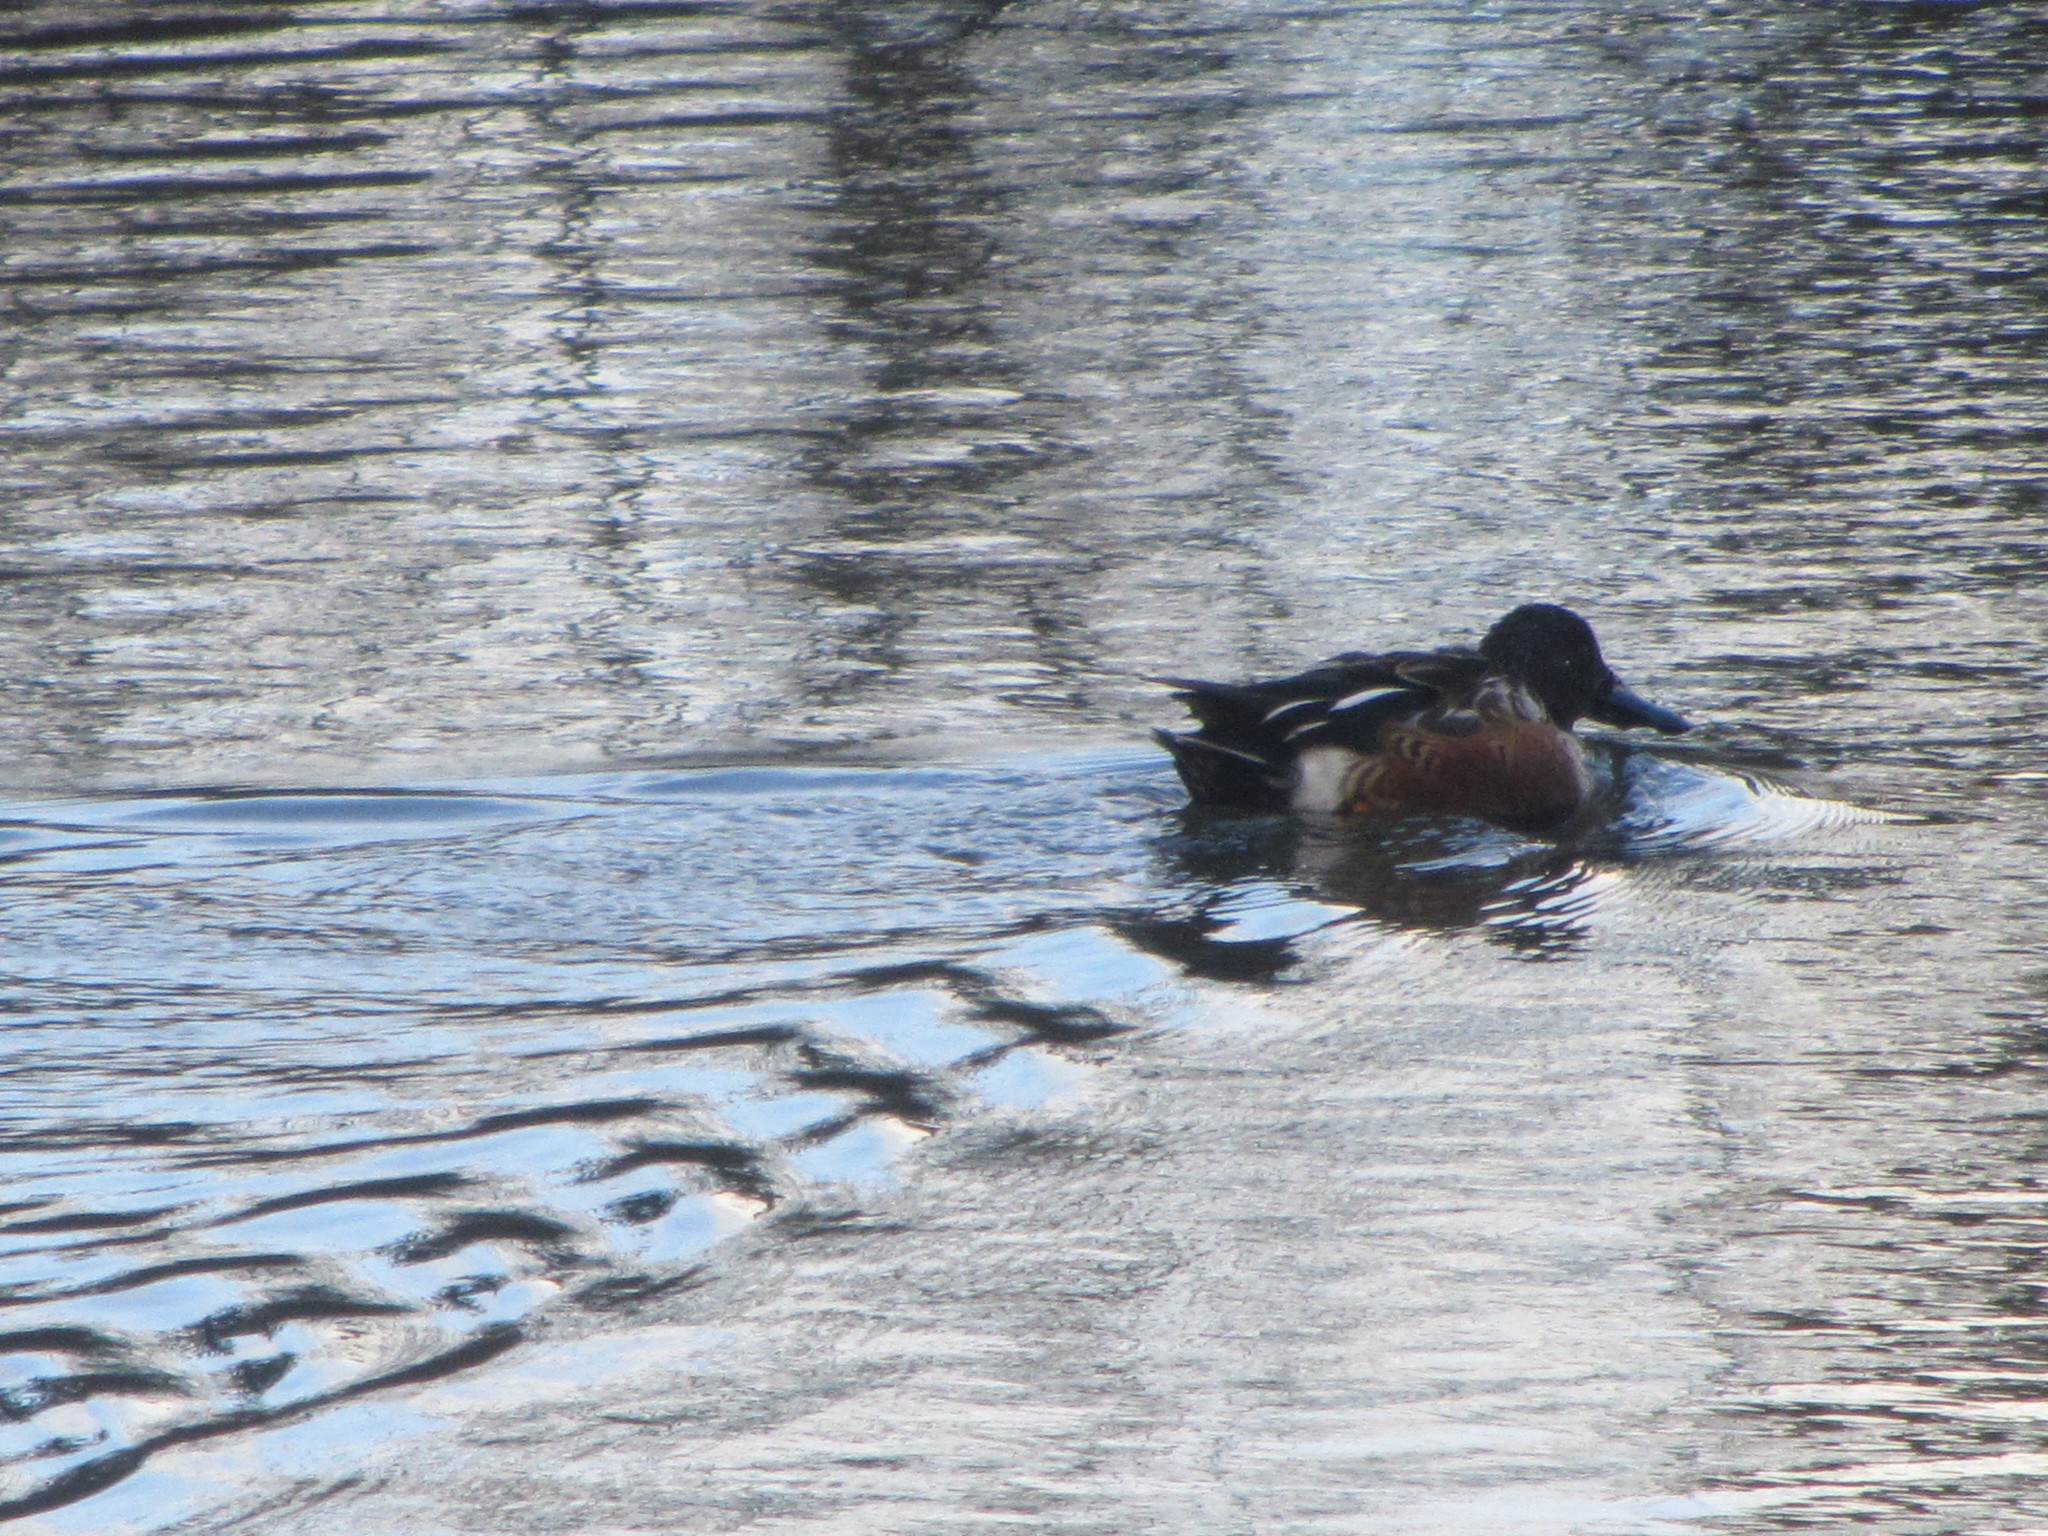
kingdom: Animalia
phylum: Chordata
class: Aves
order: Anseriformes
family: Anatidae
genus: Spatula
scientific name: Spatula clypeata
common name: Northern shoveler
